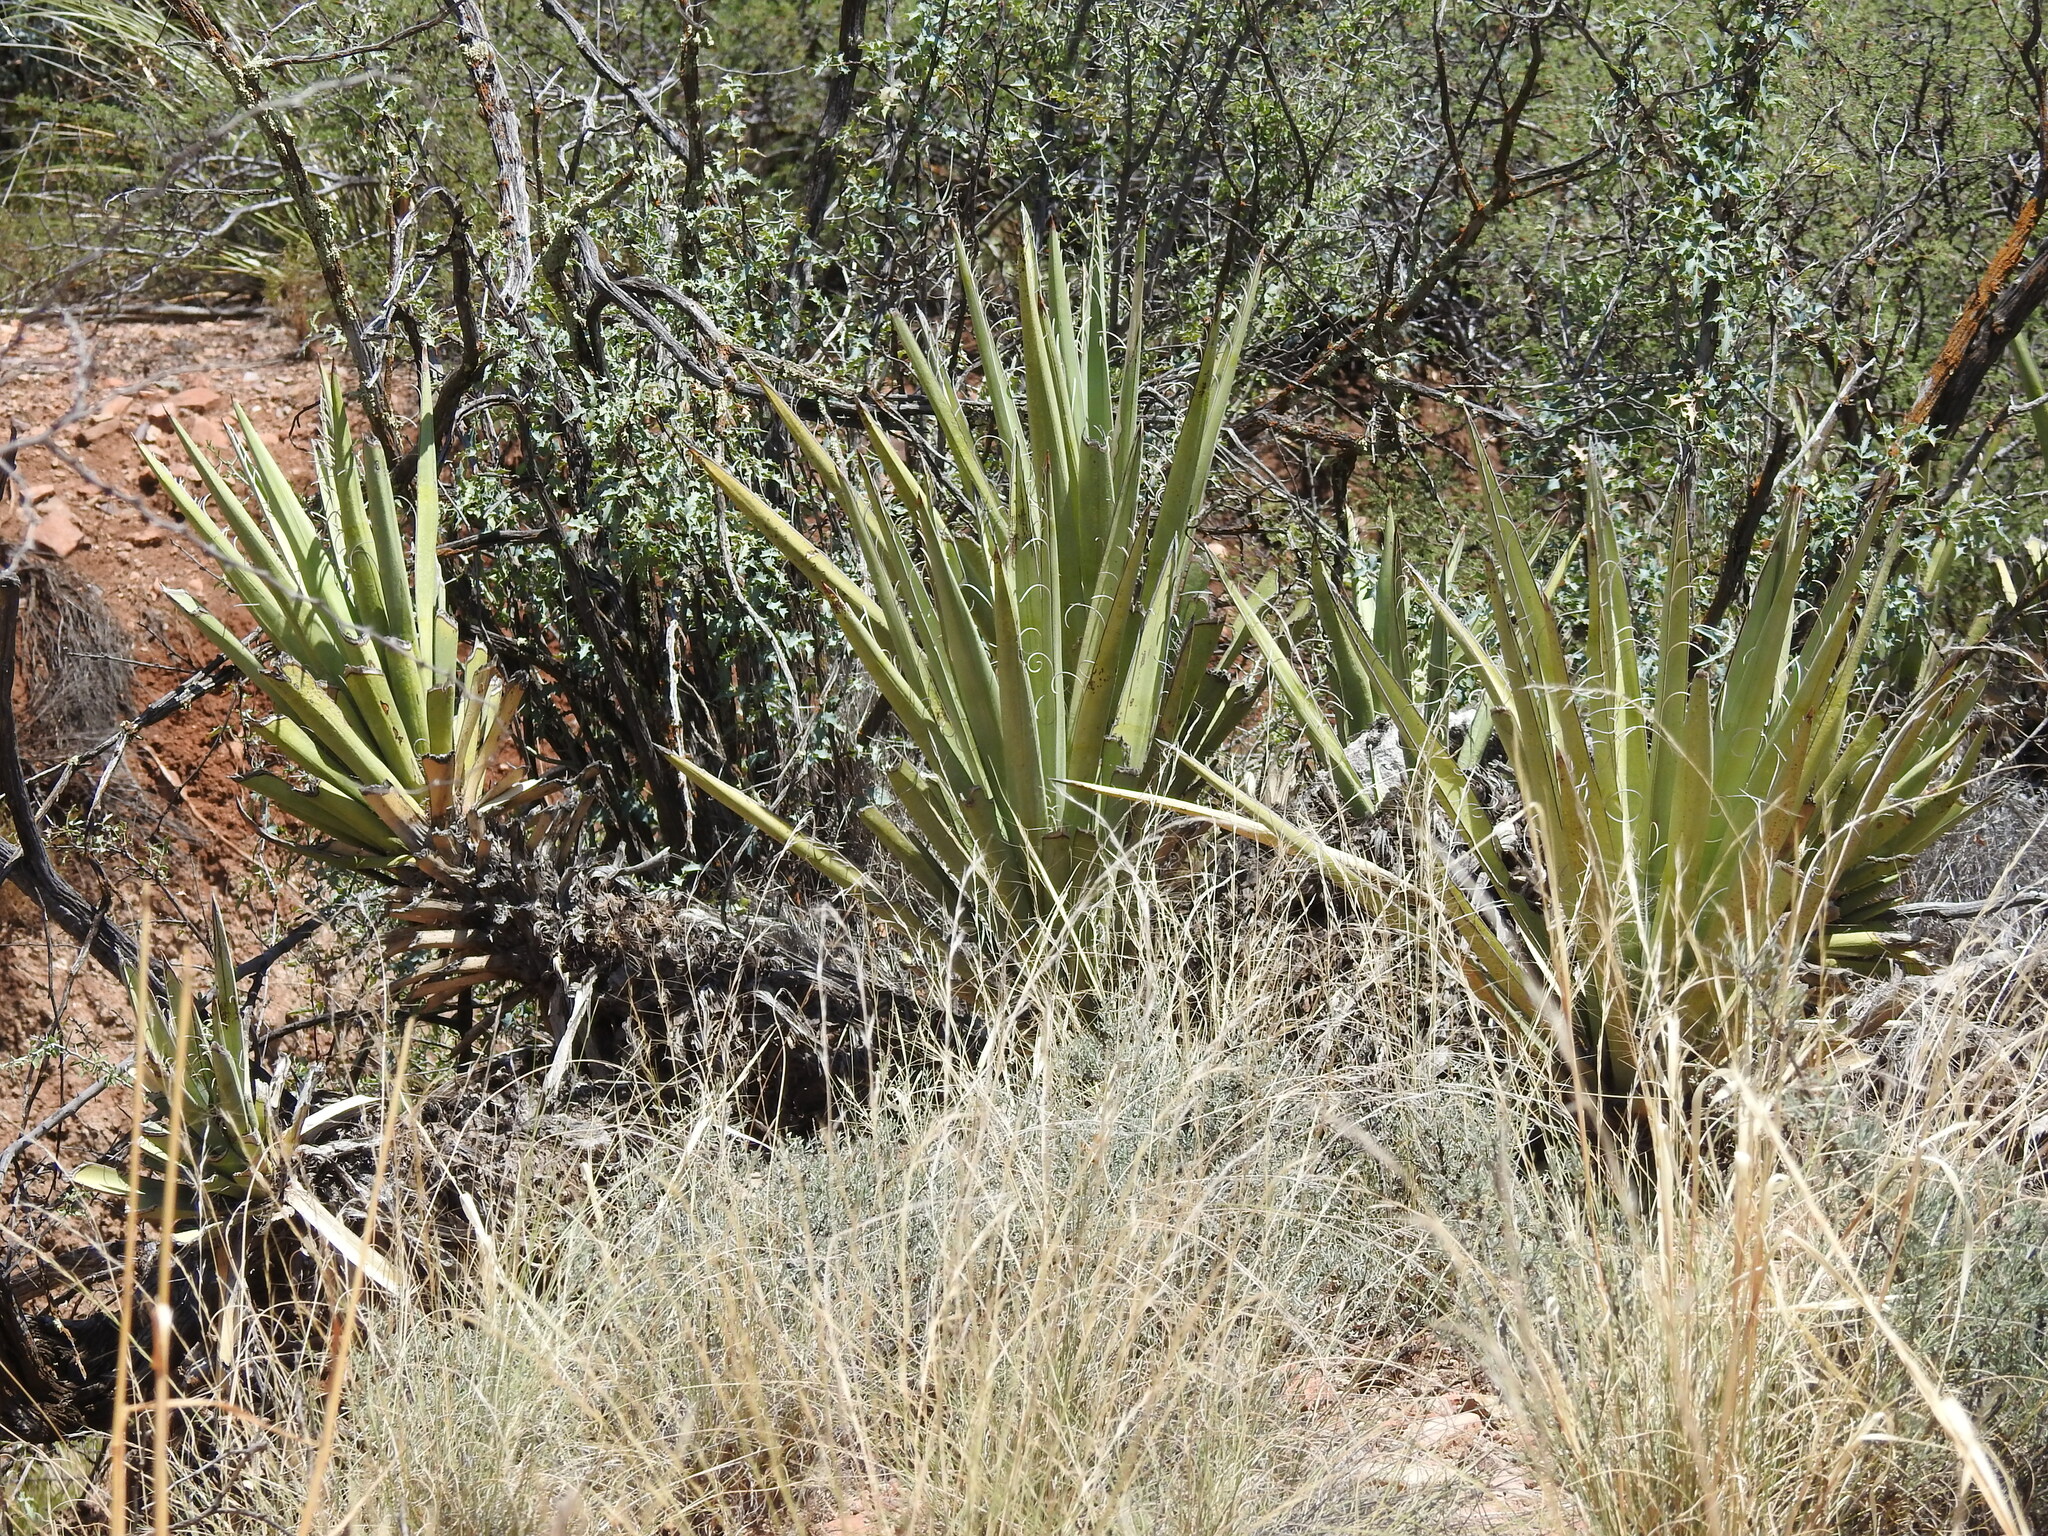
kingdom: Plantae
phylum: Tracheophyta
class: Liliopsida
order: Asparagales
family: Asparagaceae
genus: Yucca
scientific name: Yucca baccata
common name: Banana yucca
